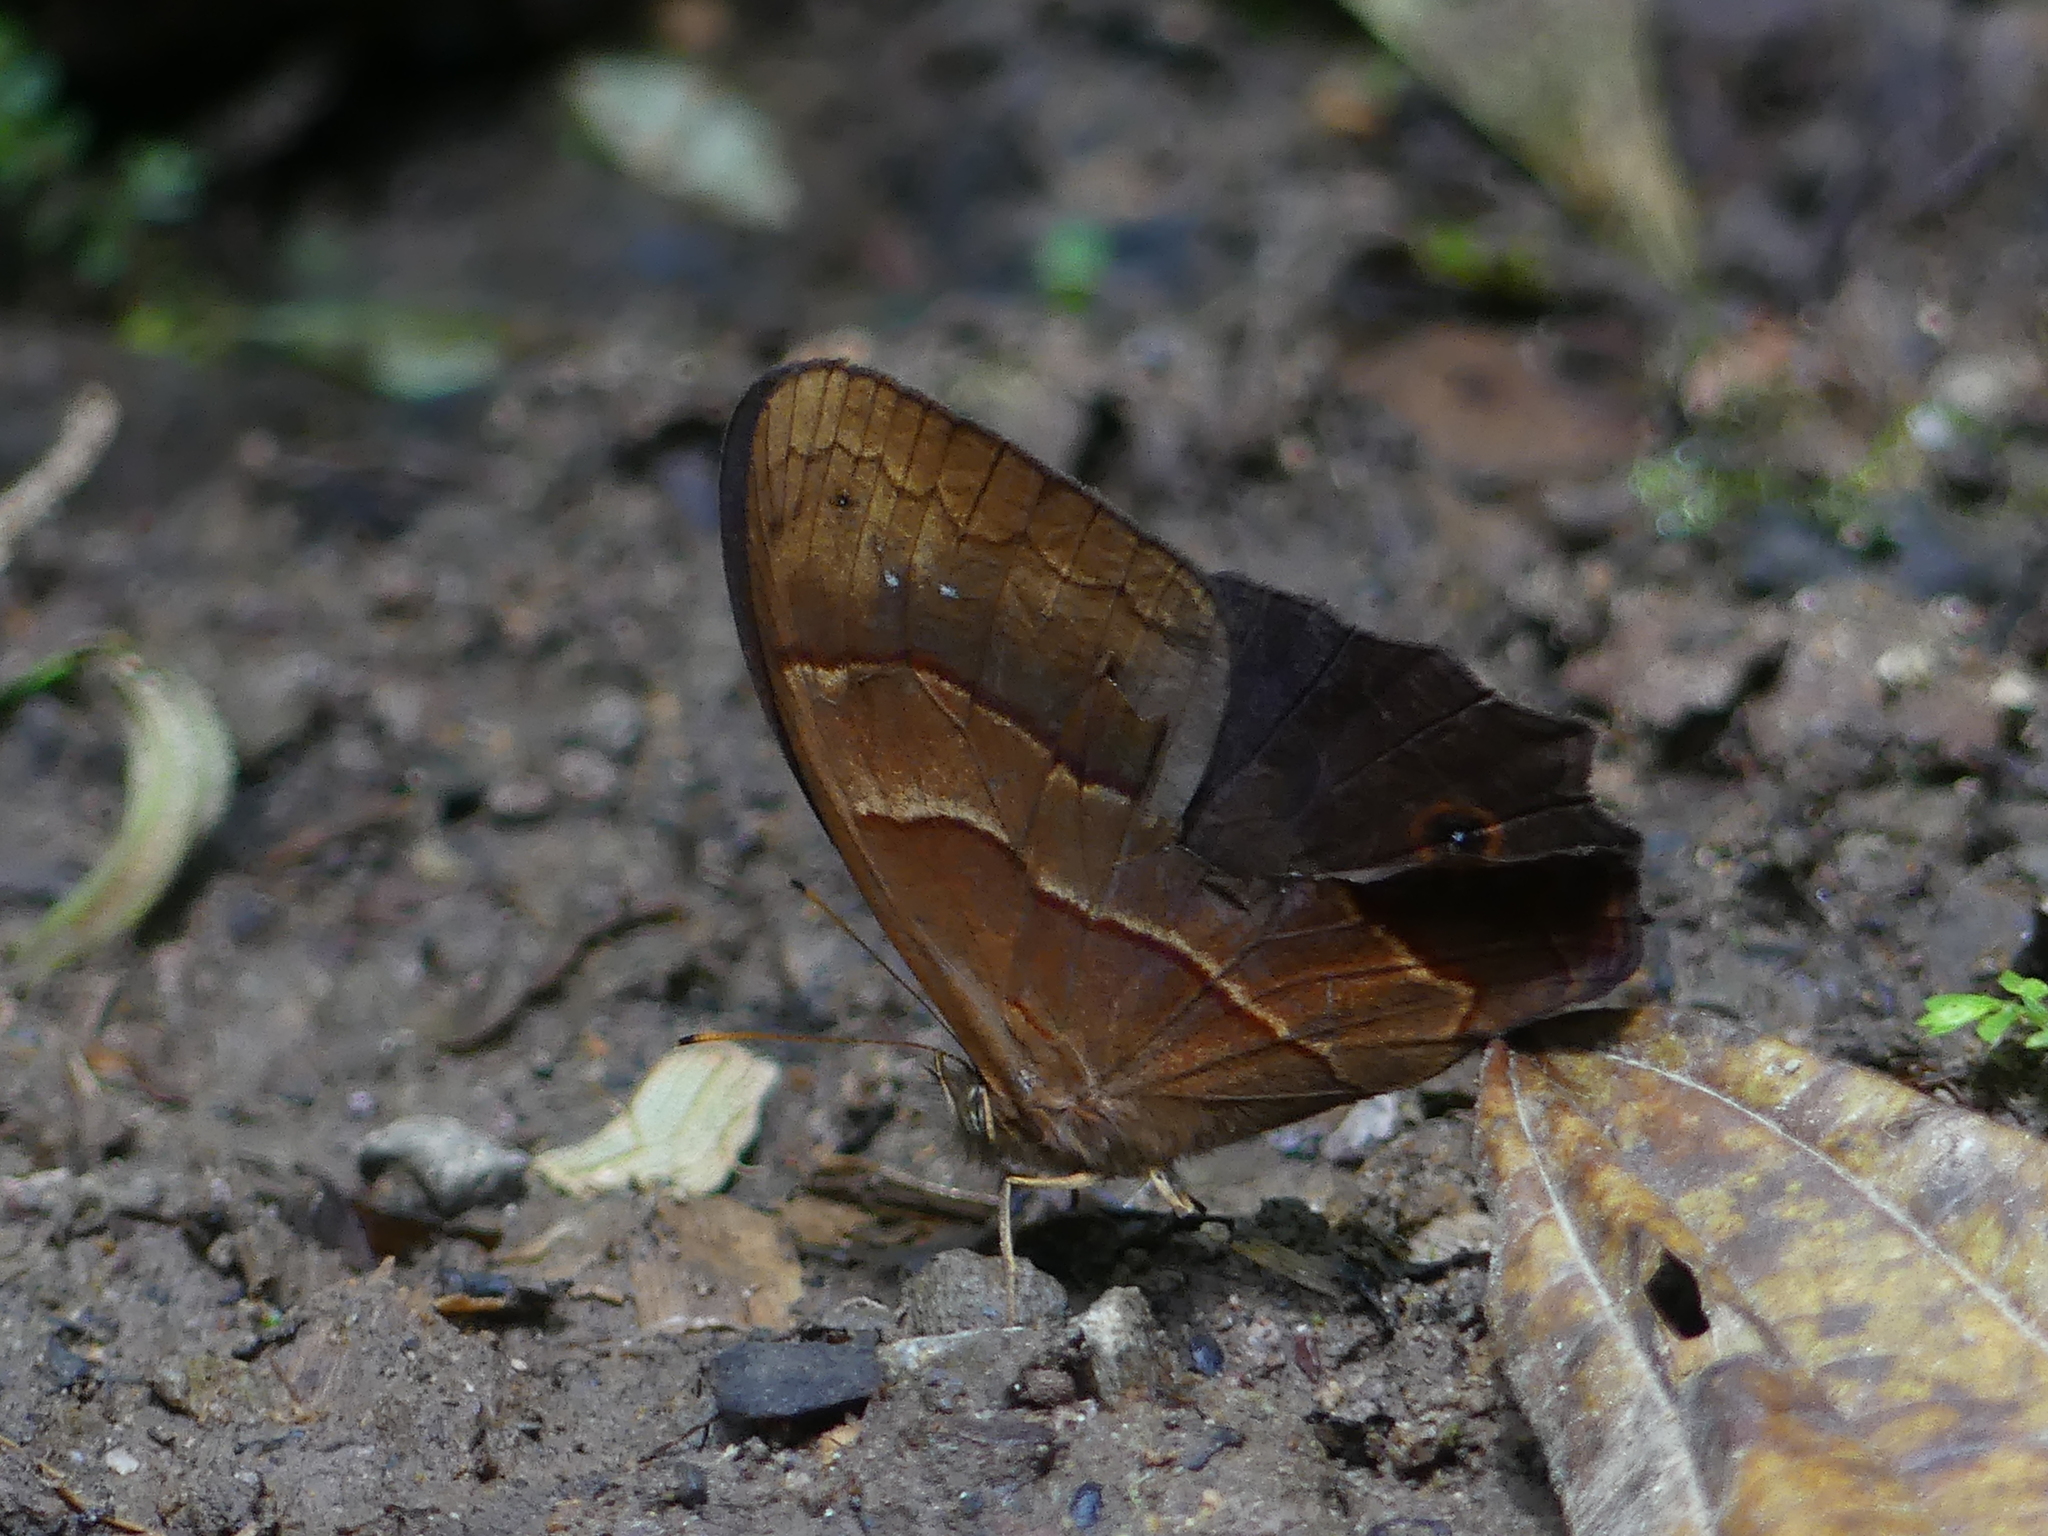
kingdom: Animalia
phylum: Arthropoda
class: Insecta
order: Lepidoptera
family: Nymphalidae
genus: Satyrotaygetis
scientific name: Satyrotaygetis satyrina
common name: Wide-bordered satyr
